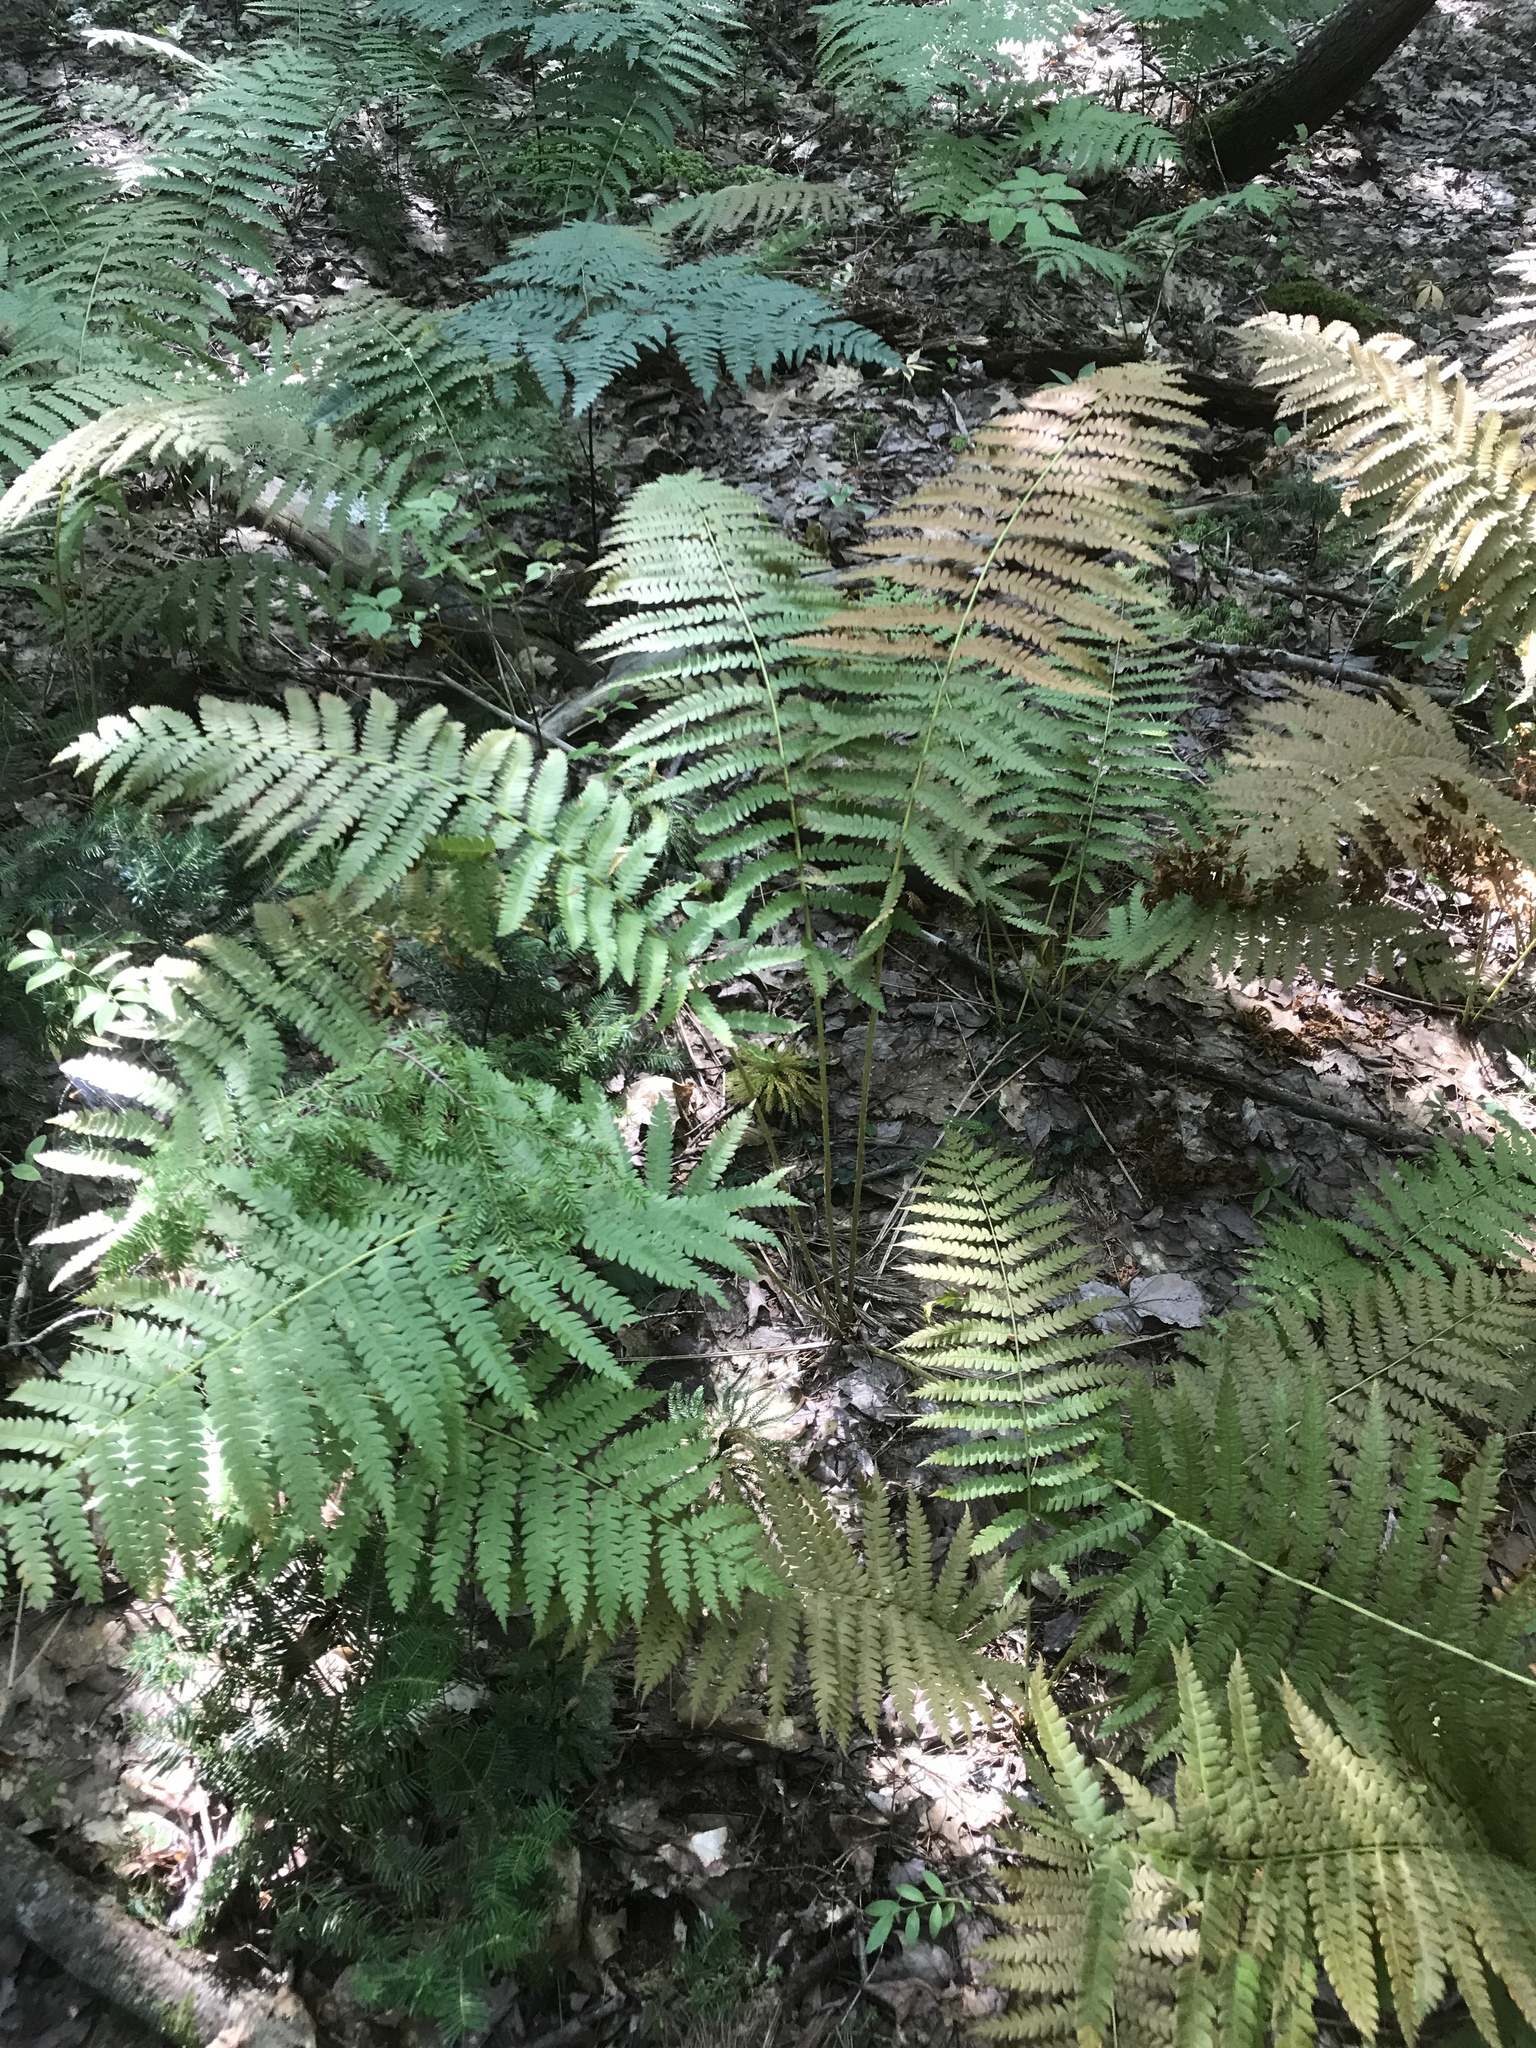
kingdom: Plantae
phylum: Tracheophyta
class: Polypodiopsida
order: Osmundales
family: Osmundaceae
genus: Osmundastrum
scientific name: Osmundastrum cinnamomeum
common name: Cinnamon fern
